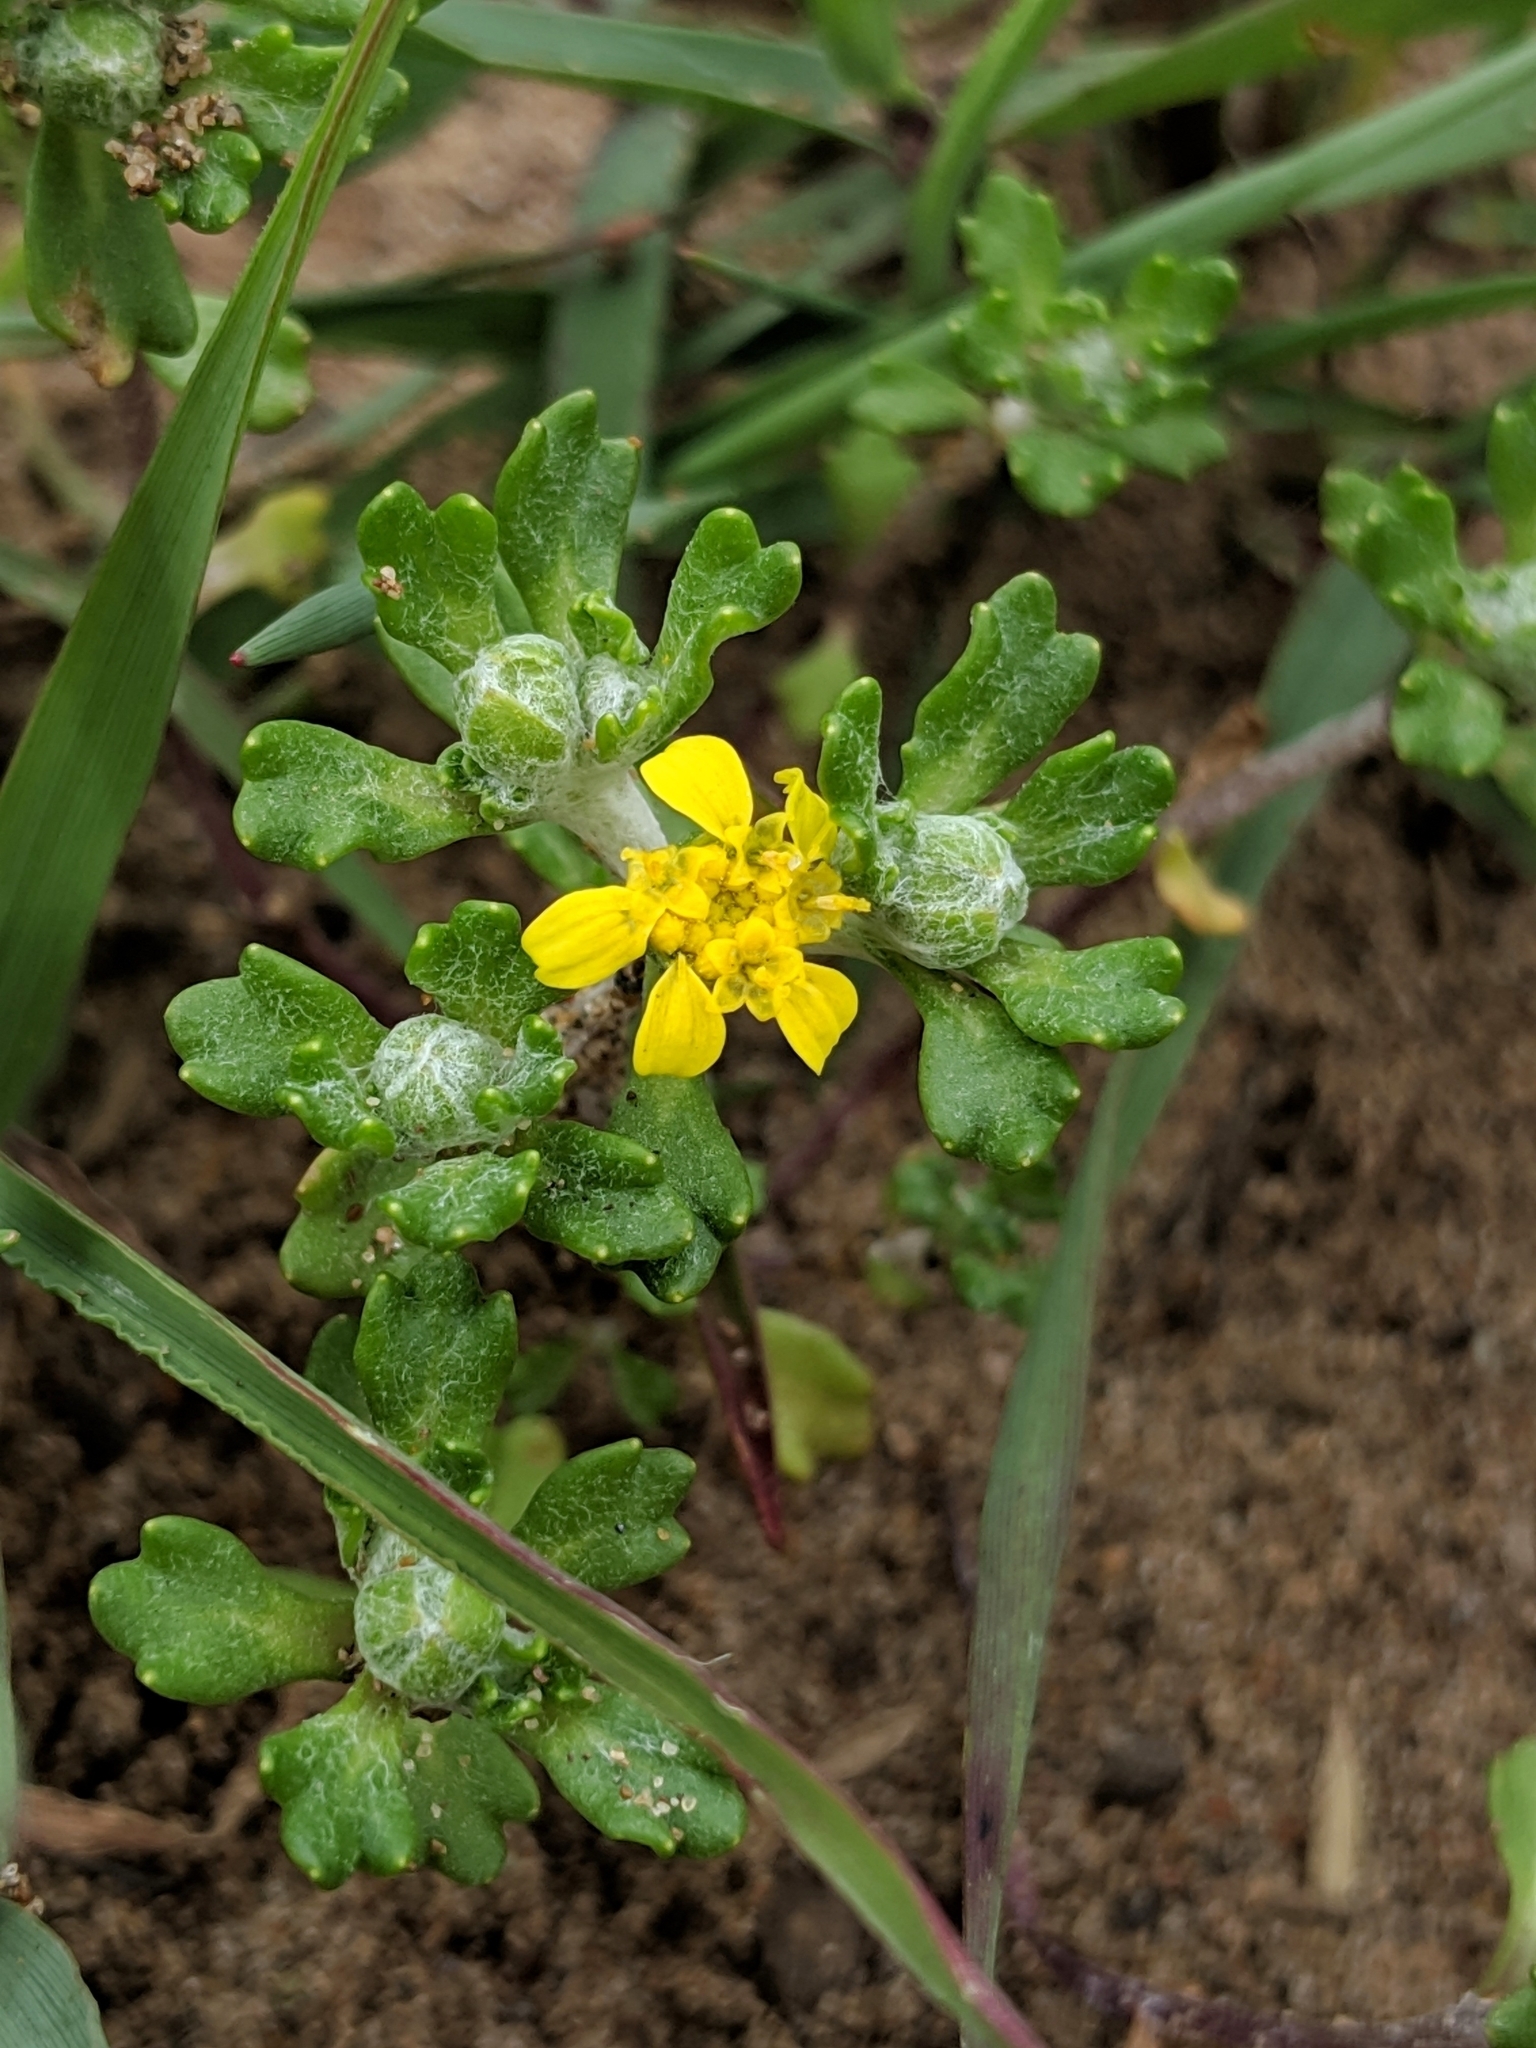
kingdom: Plantae
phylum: Tracheophyta
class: Magnoliopsida
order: Asterales
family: Asteraceae
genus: Eriophyllum
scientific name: Eriophyllum multicaule
